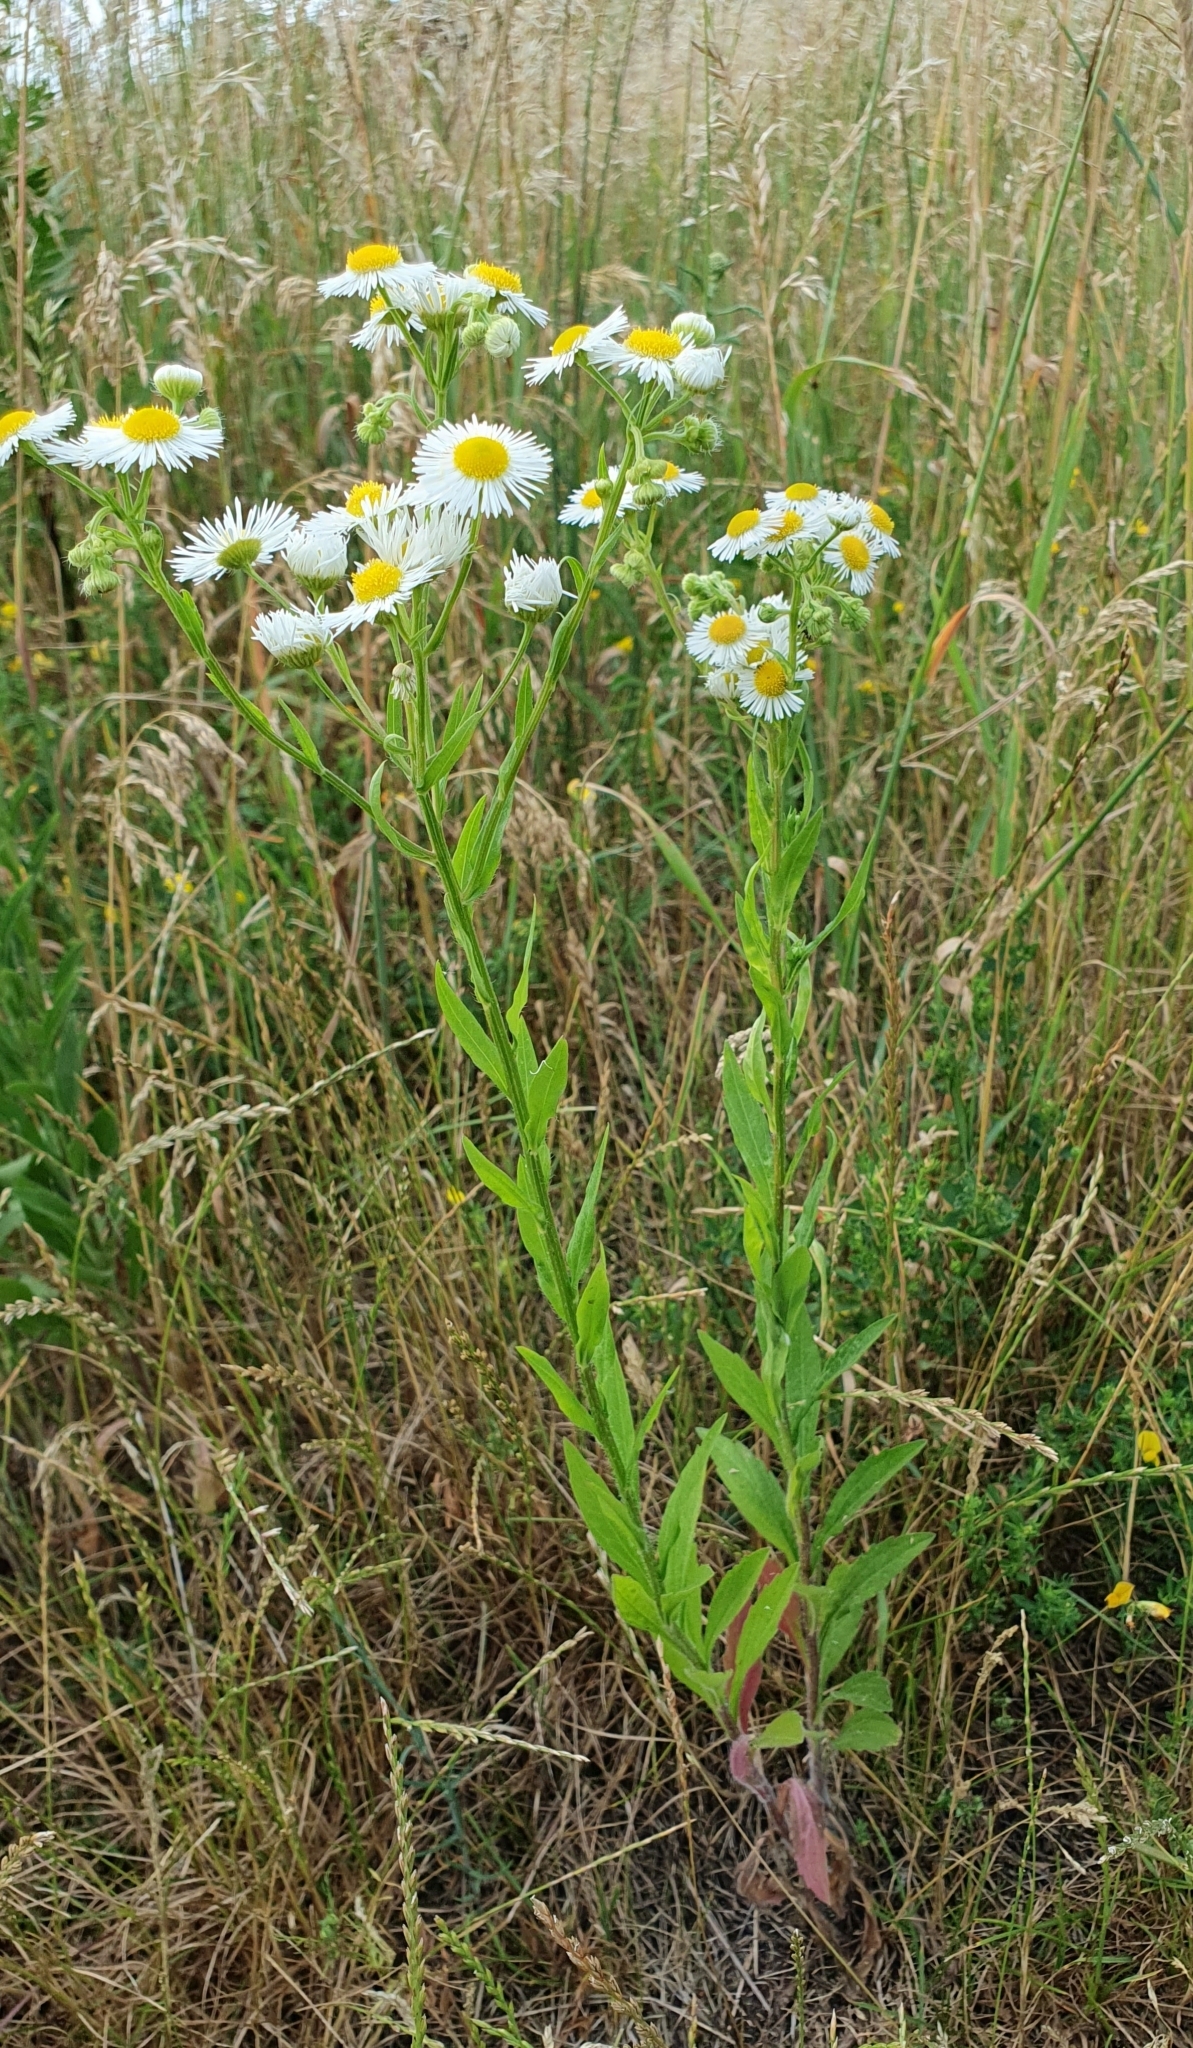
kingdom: Plantae
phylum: Tracheophyta
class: Magnoliopsida
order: Asterales
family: Asteraceae
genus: Erigeron
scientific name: Erigeron annuus
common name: Tall fleabane
